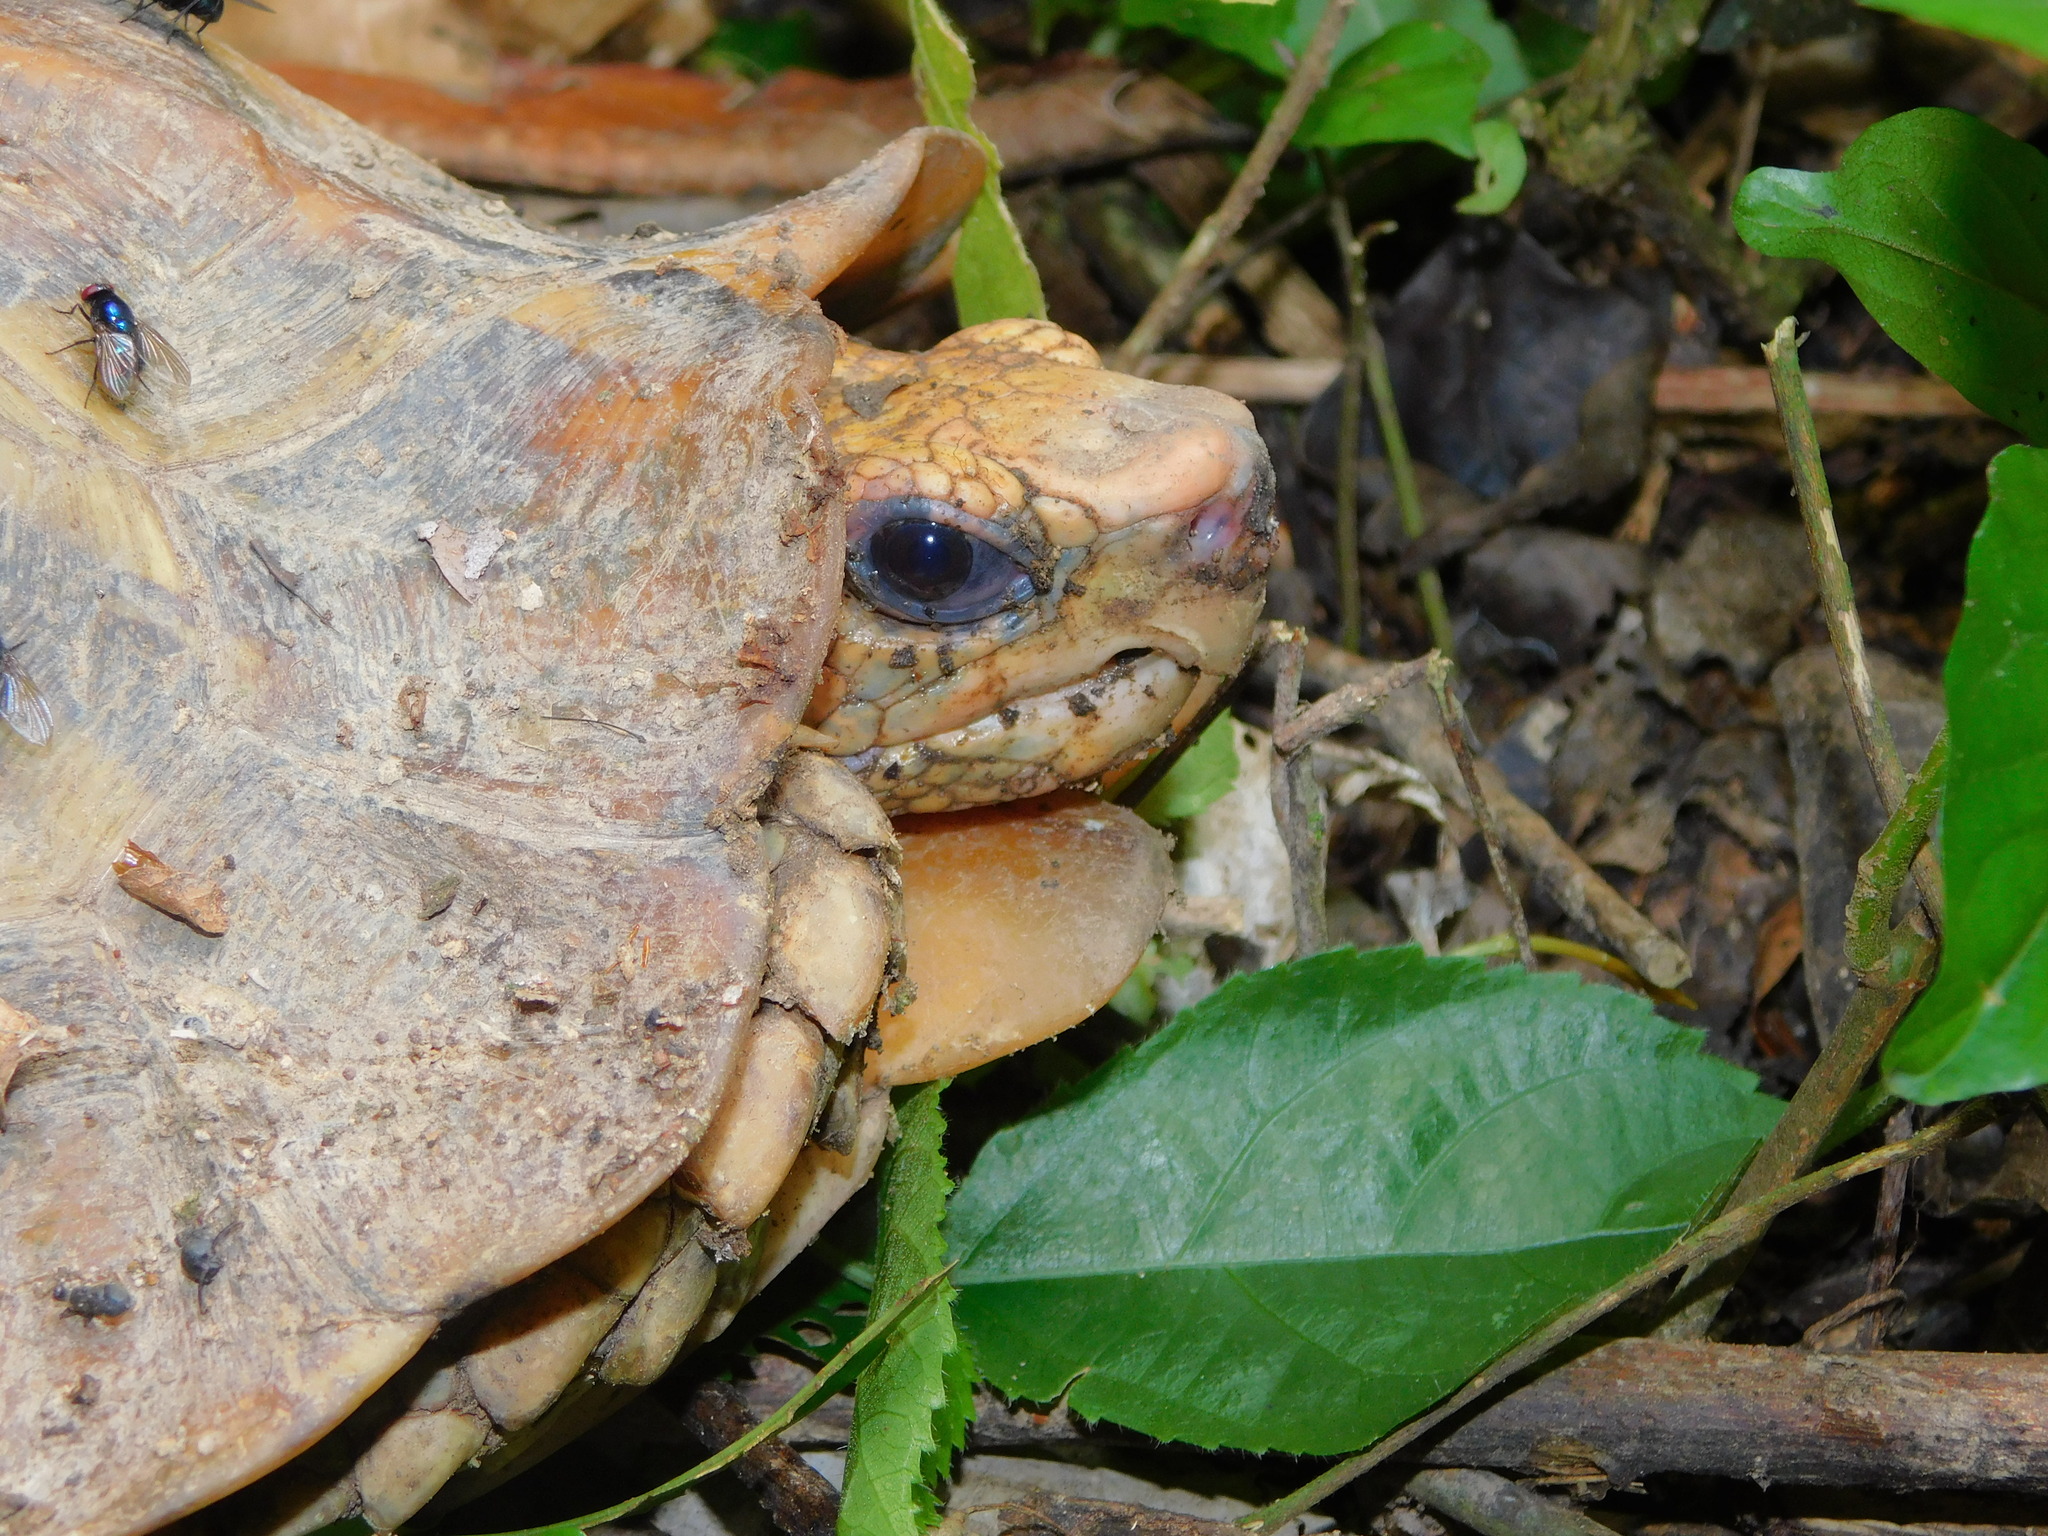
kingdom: Animalia
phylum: Chordata
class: Testudines
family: Testudinidae
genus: Kinixys
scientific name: Kinixys erosa
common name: Serrated hinge-back tortoise
